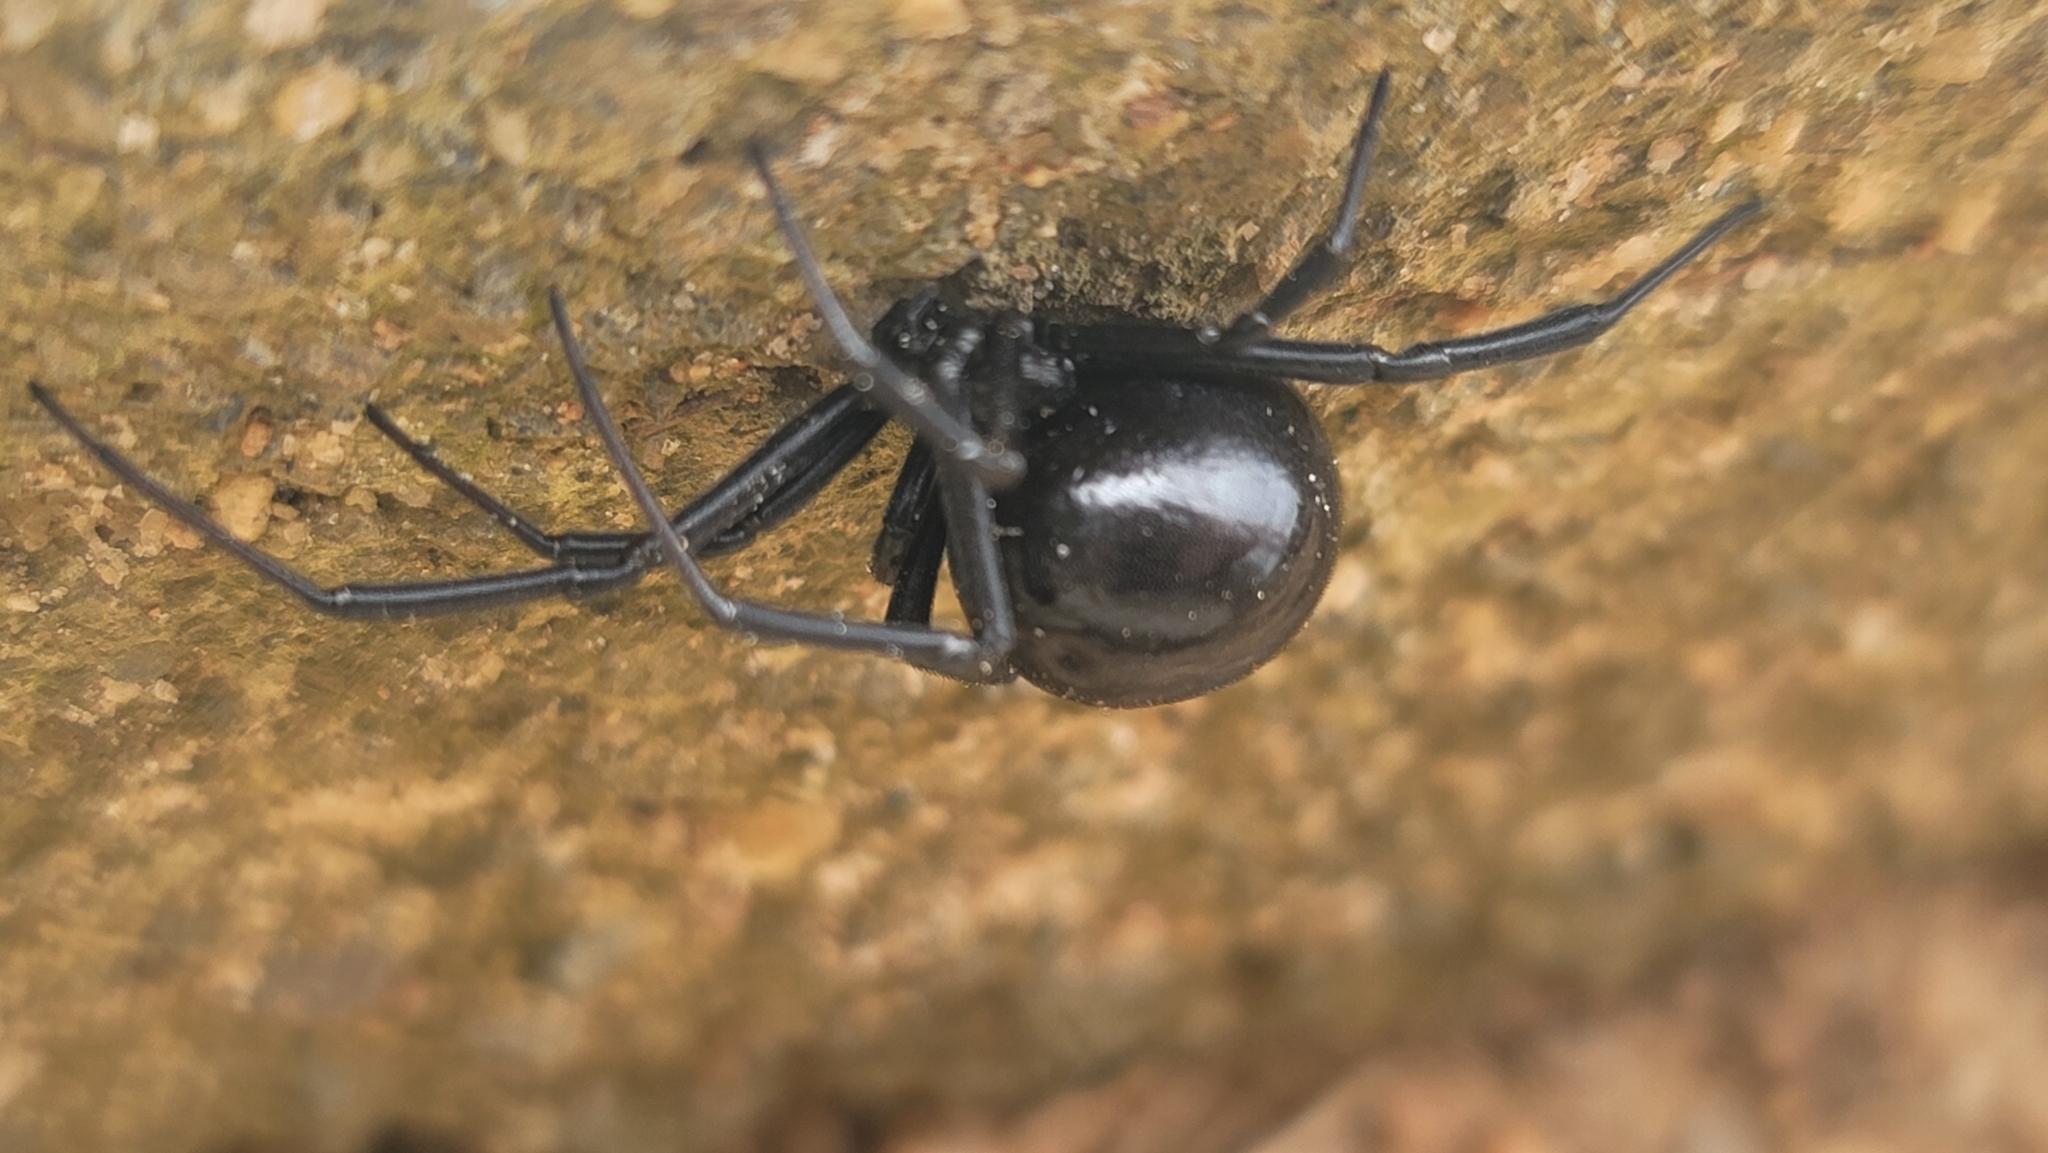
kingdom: Animalia
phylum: Arthropoda
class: Arachnida
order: Araneae
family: Theridiidae
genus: Latrodectus
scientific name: Latrodectus mactans
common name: Cobweb spiders
